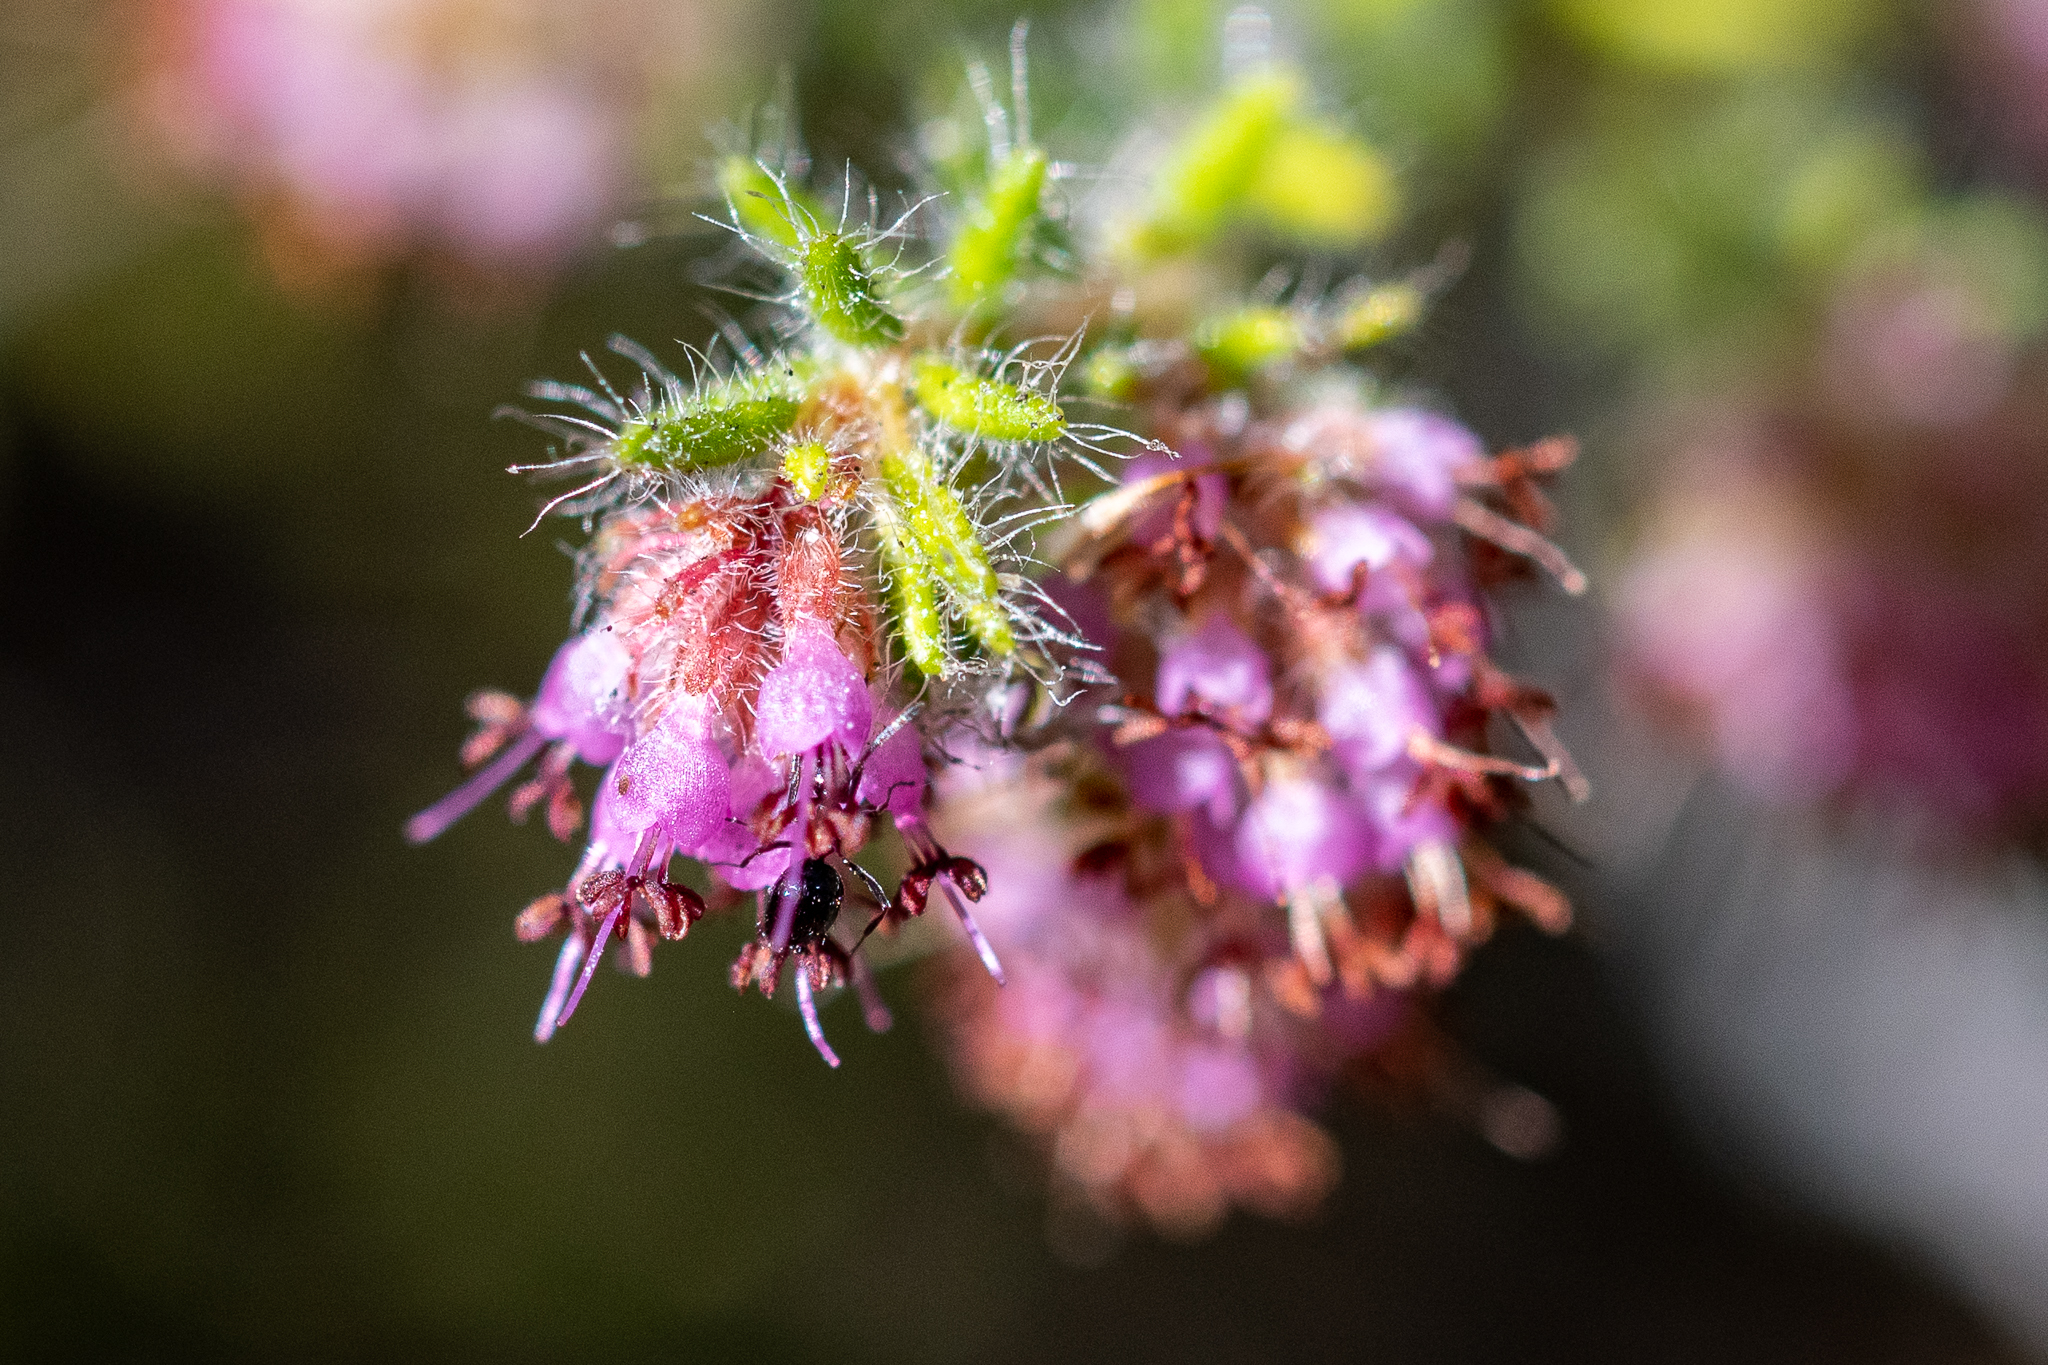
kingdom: Plantae
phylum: Tracheophyta
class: Magnoliopsida
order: Ericales
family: Ericaceae
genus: Erica
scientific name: Erica similis
